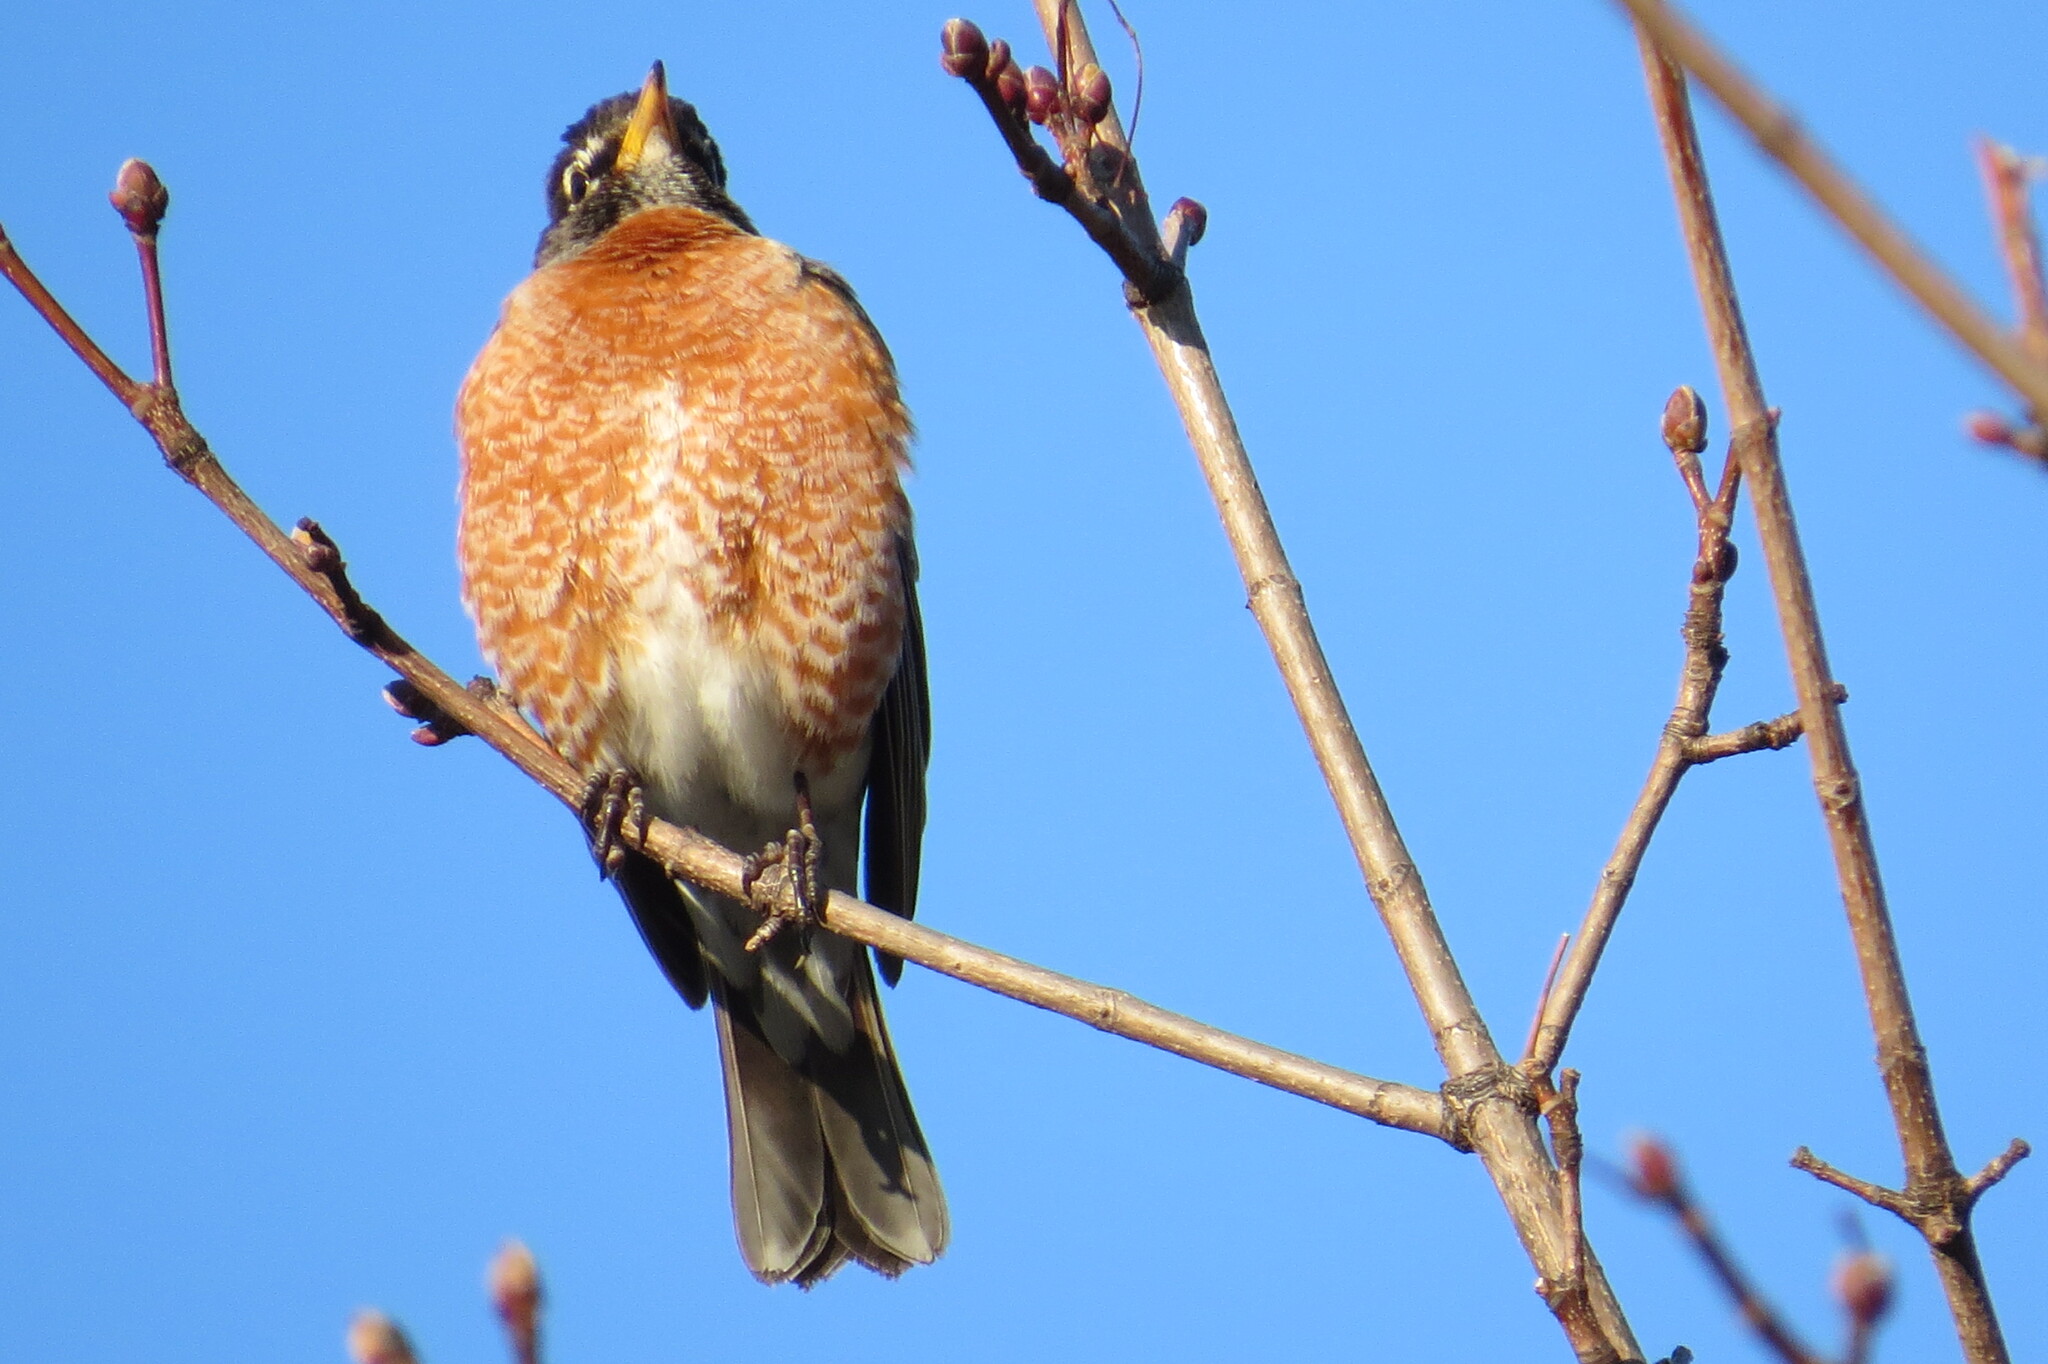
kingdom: Animalia
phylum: Chordata
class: Aves
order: Passeriformes
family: Turdidae
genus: Turdus
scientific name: Turdus migratorius
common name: American robin
